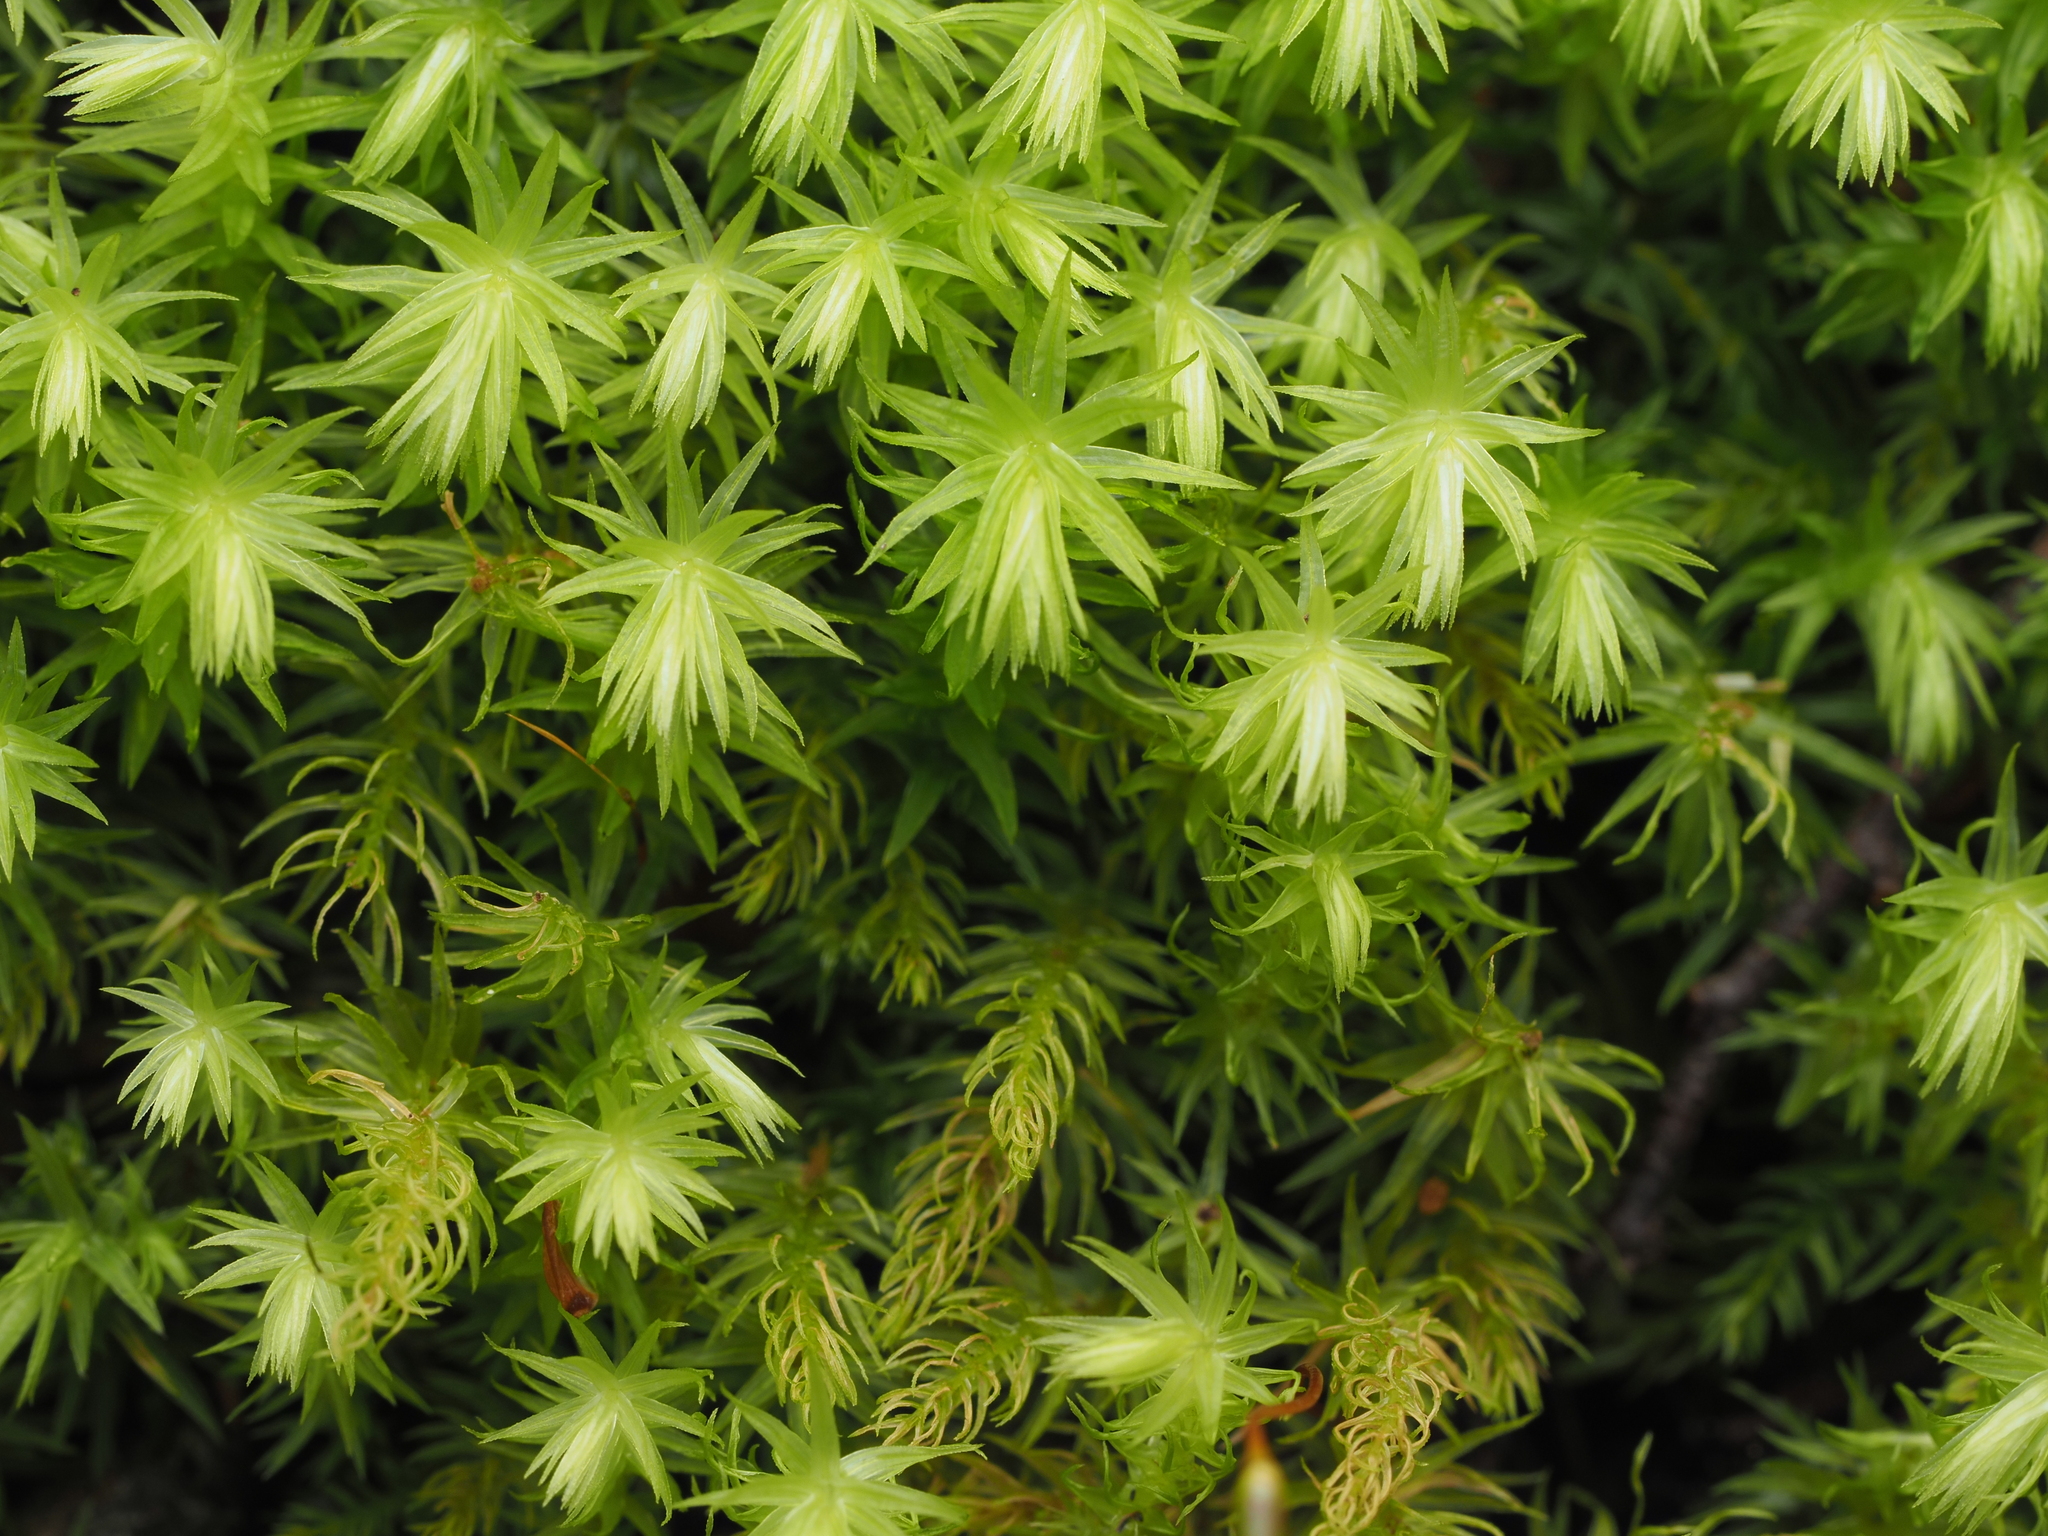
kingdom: Plantae
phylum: Bryophyta
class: Bryopsida
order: Aulacomniales
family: Aulacomniaceae
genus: Hymenodontopsis
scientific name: Hymenodontopsis mnioides
